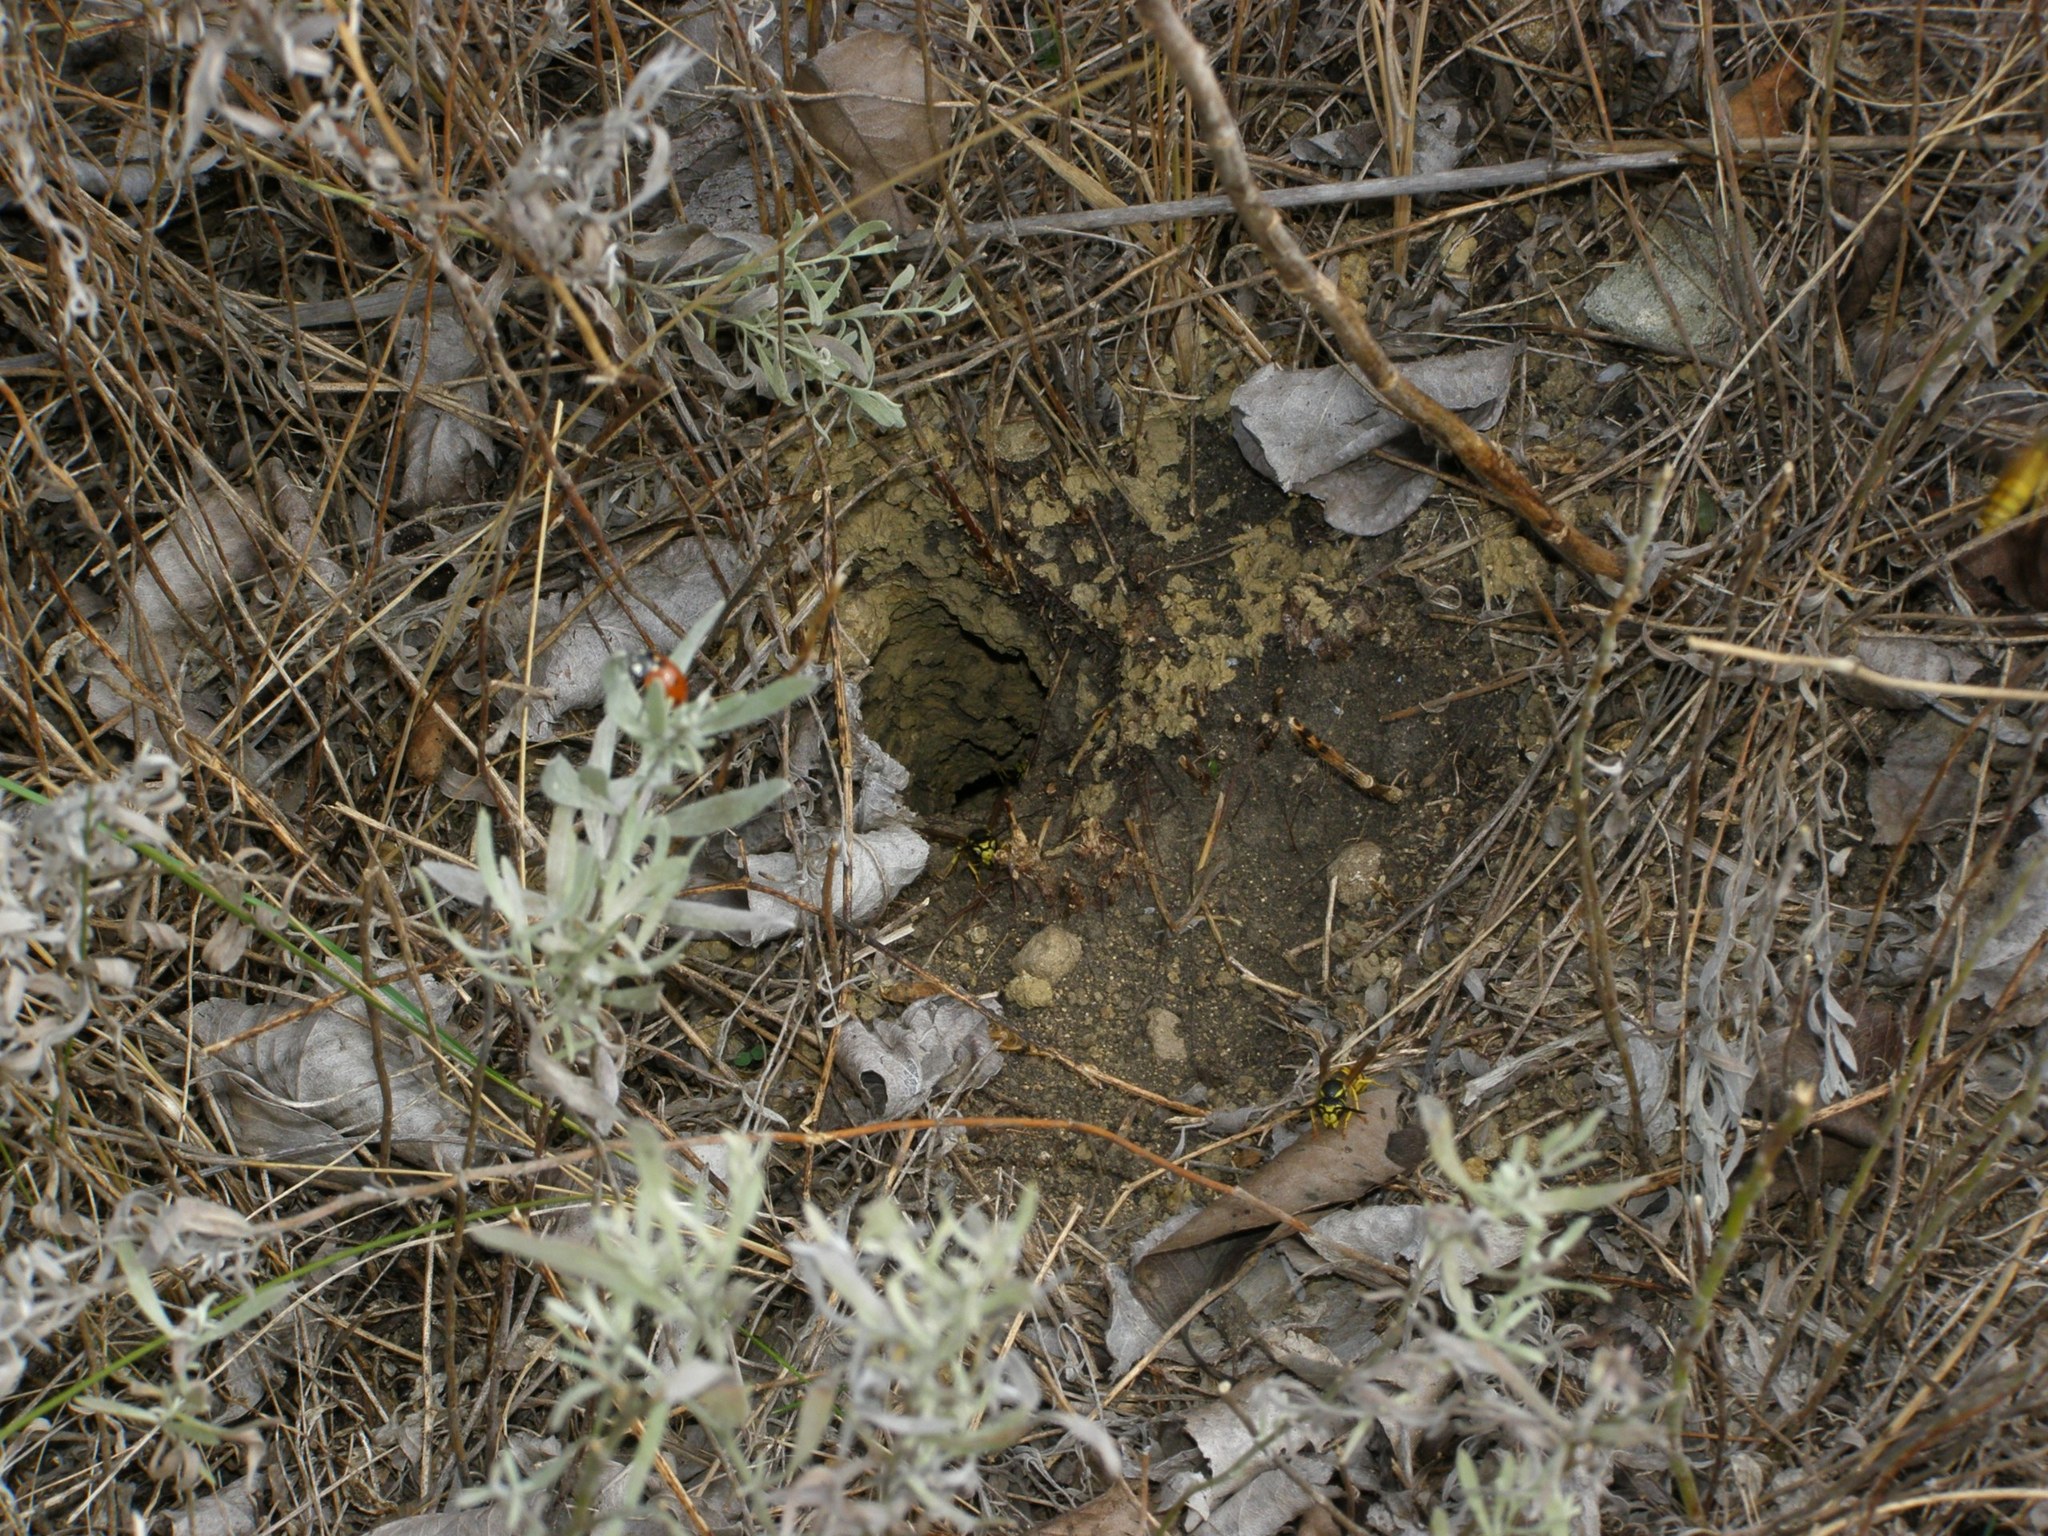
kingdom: Animalia
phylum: Arthropoda
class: Insecta
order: Hymenoptera
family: Vespidae
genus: Vespula
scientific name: Vespula germanica
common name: German wasp
